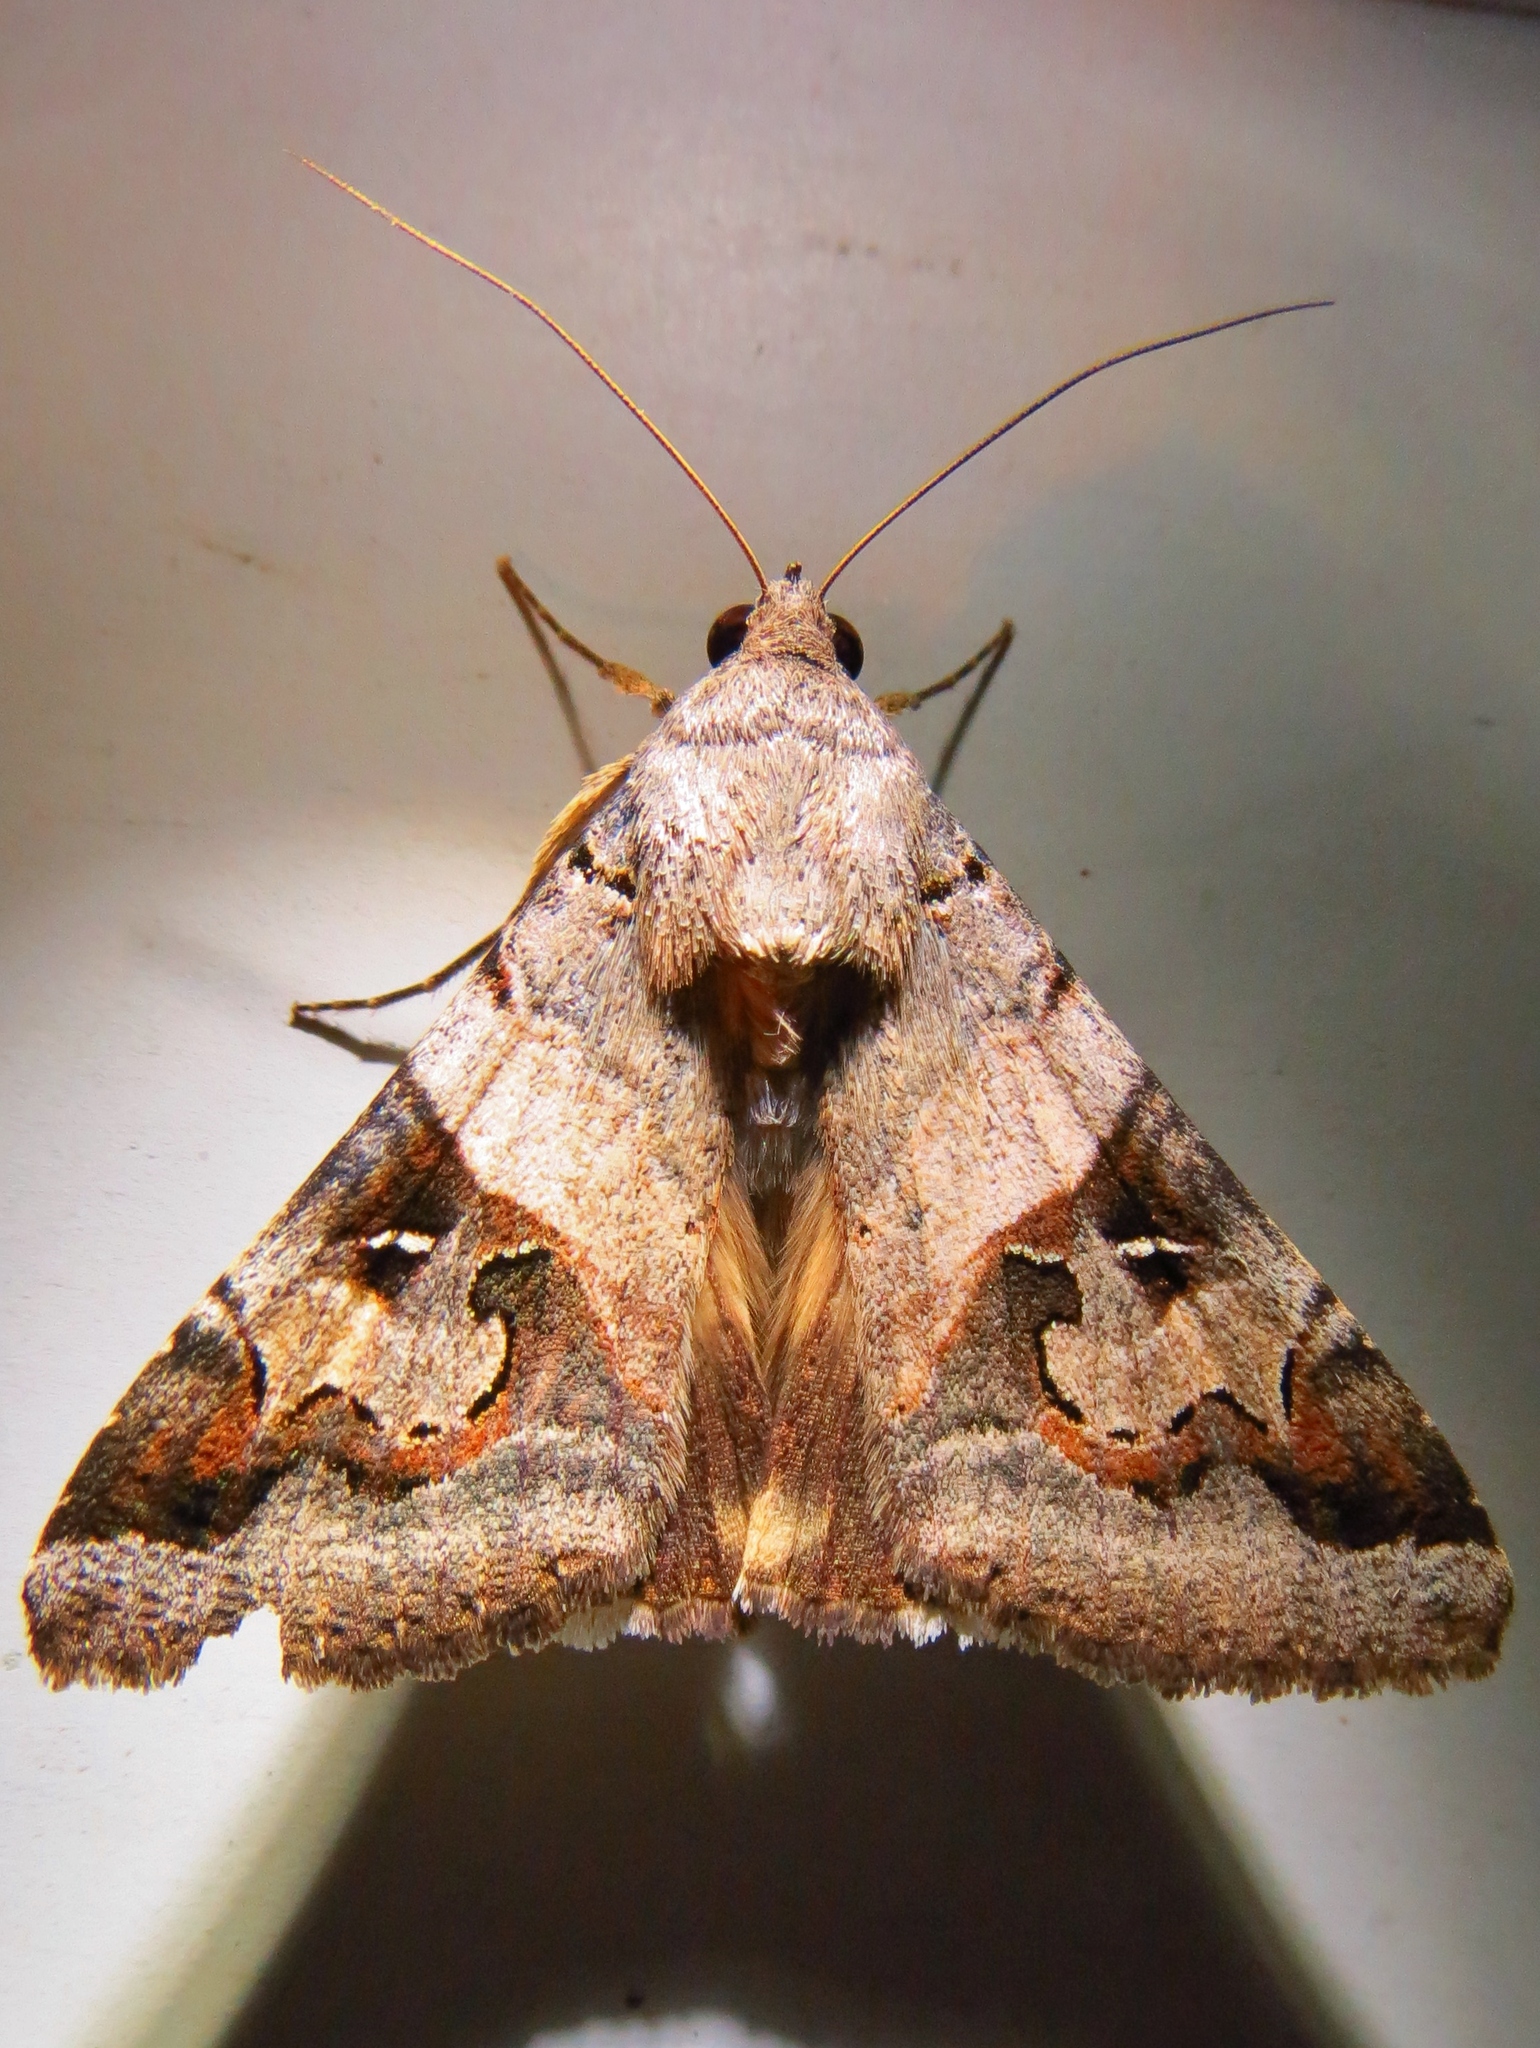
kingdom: Animalia
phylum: Arthropoda
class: Insecta
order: Lepidoptera
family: Erebidae
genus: Melipotis
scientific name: Melipotis indomita
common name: Moth
